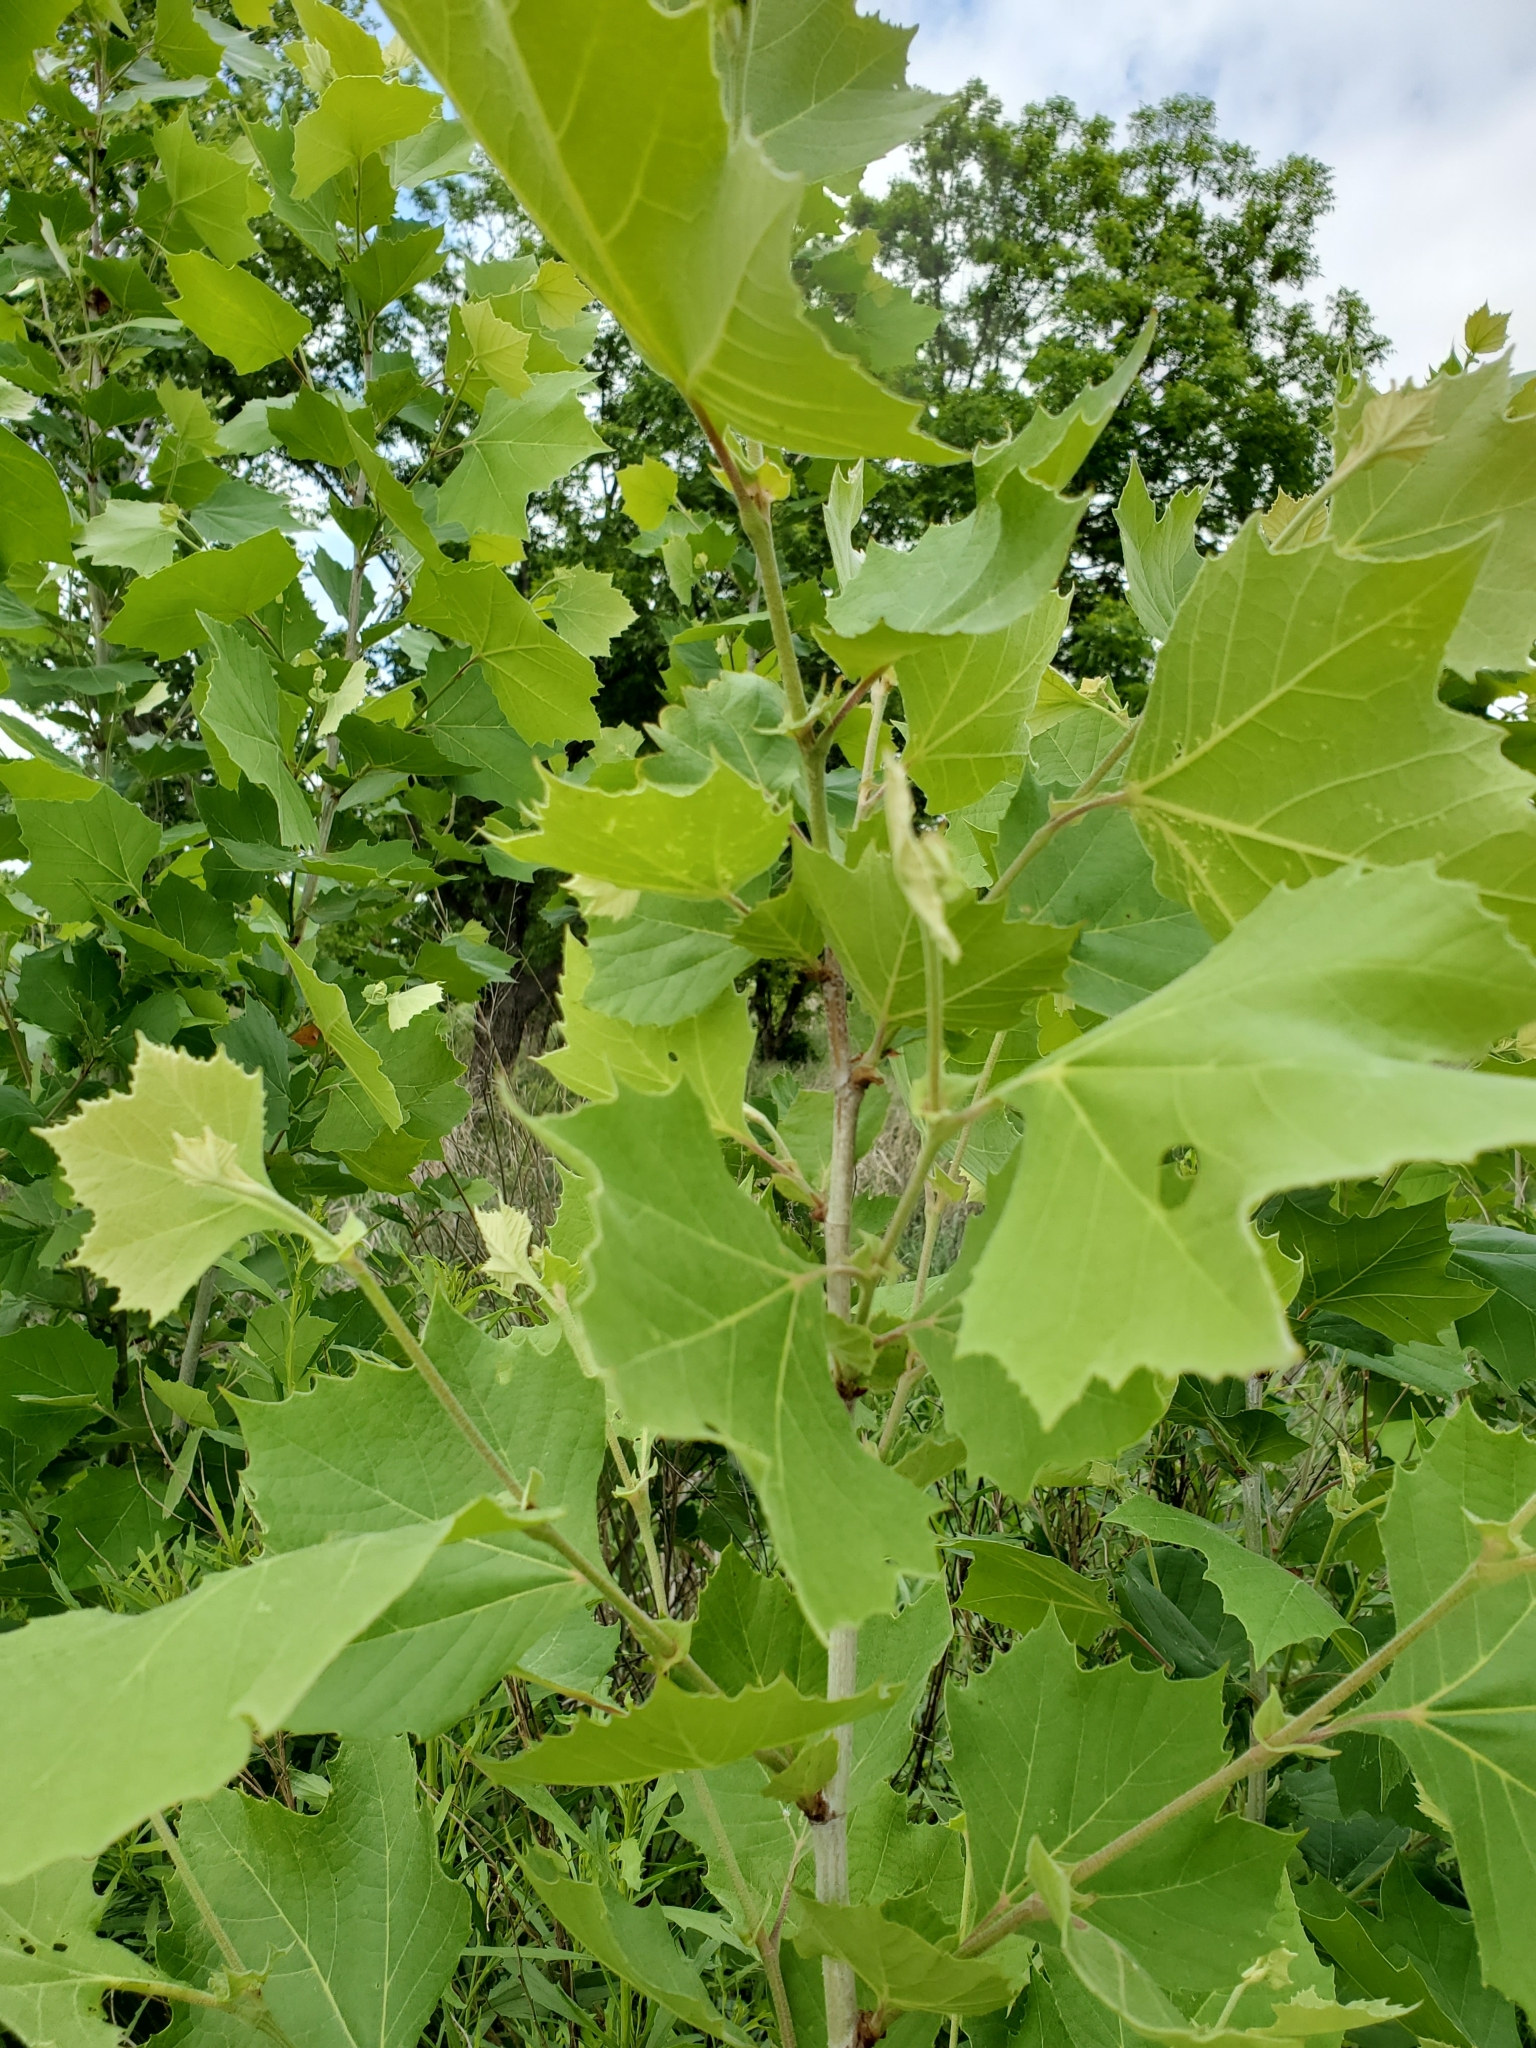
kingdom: Plantae
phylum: Tracheophyta
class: Magnoliopsida
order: Proteales
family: Platanaceae
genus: Platanus
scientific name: Platanus occidentalis
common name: American sycamore
